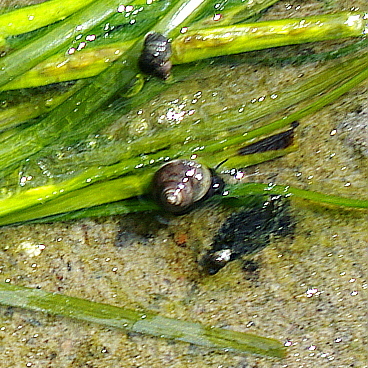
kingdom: Animalia
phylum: Mollusca
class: Gastropoda
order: Littorinimorpha
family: Littorinidae
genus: Littorina
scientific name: Littorina saxatilis
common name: Black-lined periwinkle
